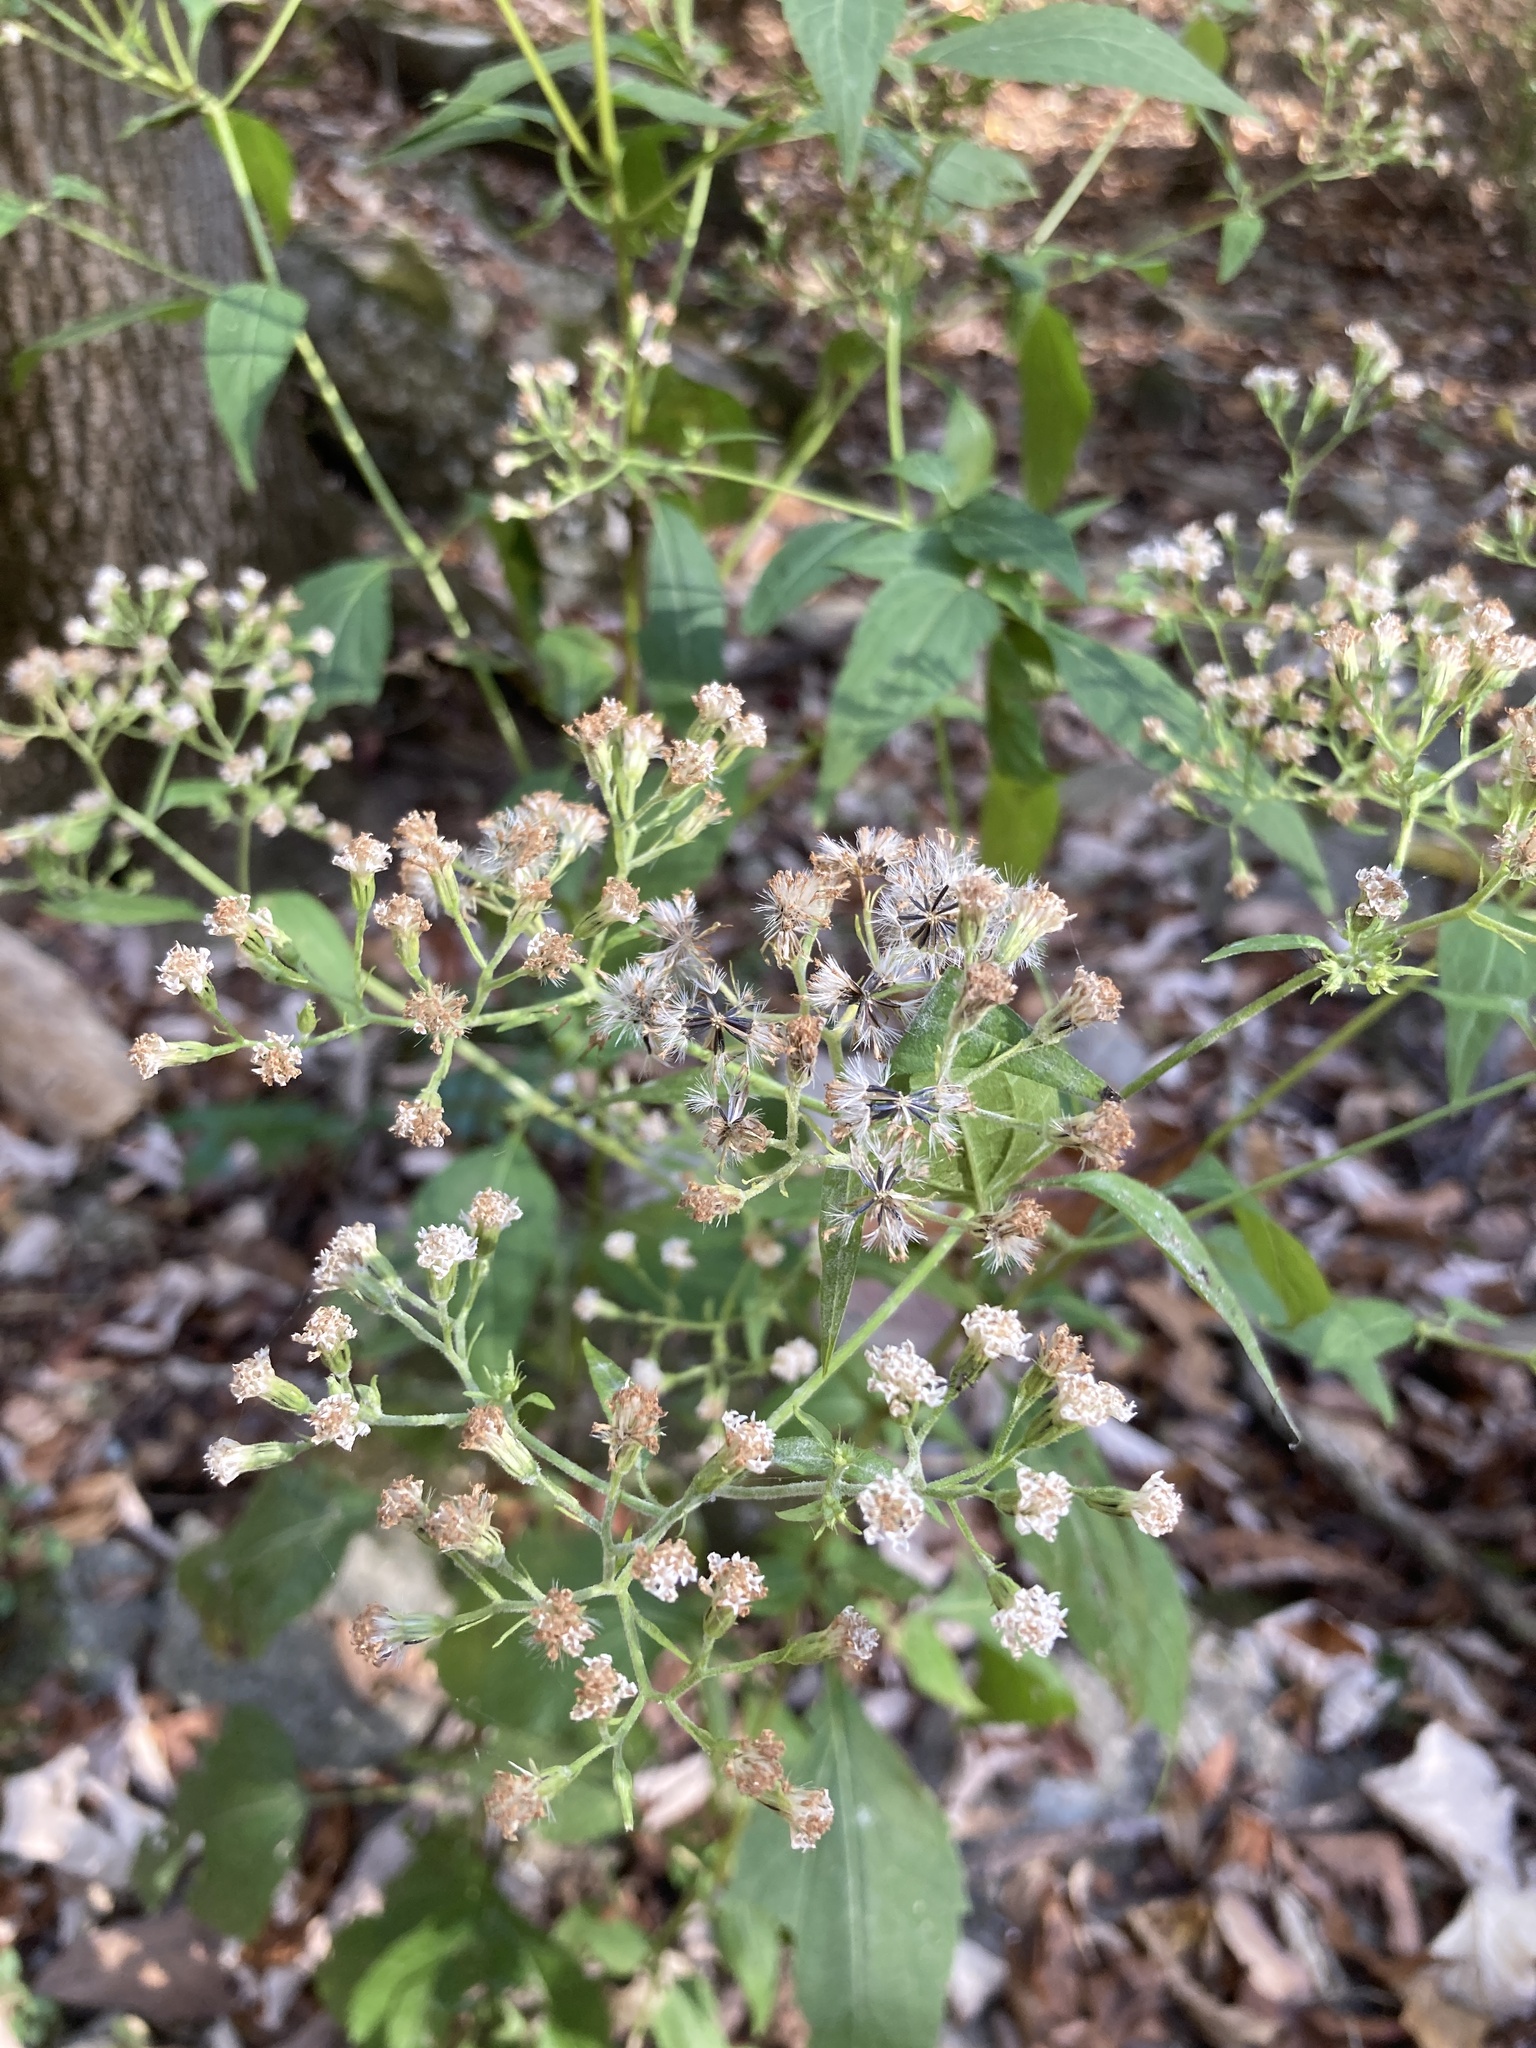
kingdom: Plantae
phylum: Tracheophyta
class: Magnoliopsida
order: Asterales
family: Asteraceae
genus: Ageratina
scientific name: Ageratina altissima
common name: White snakeroot
